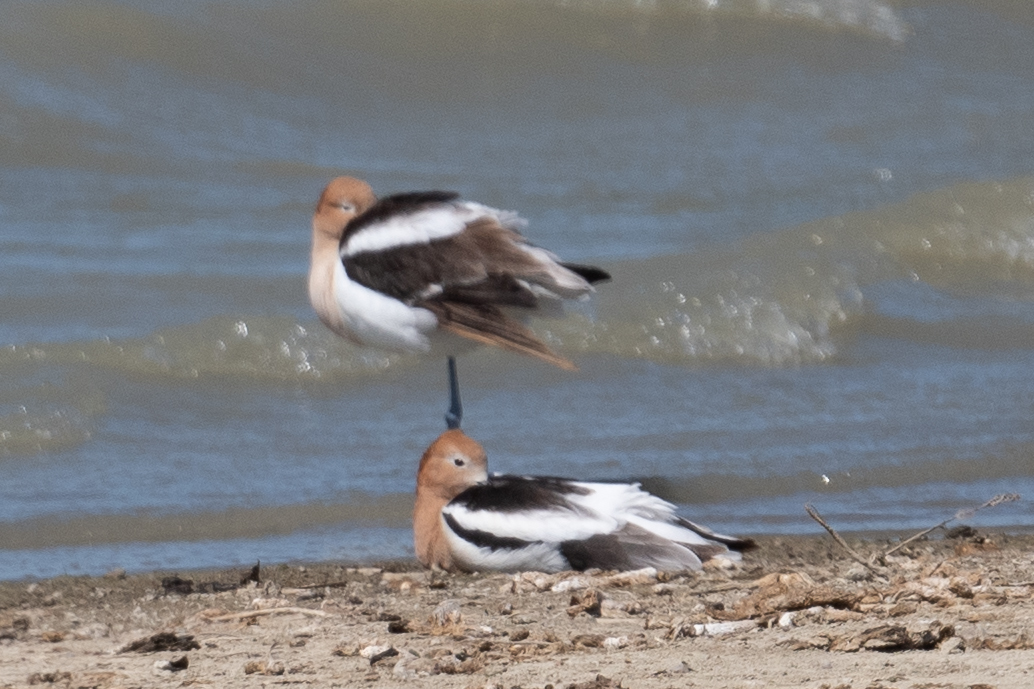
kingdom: Animalia
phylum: Chordata
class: Aves
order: Charadriiformes
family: Recurvirostridae
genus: Recurvirostra
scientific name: Recurvirostra americana
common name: American avocet
